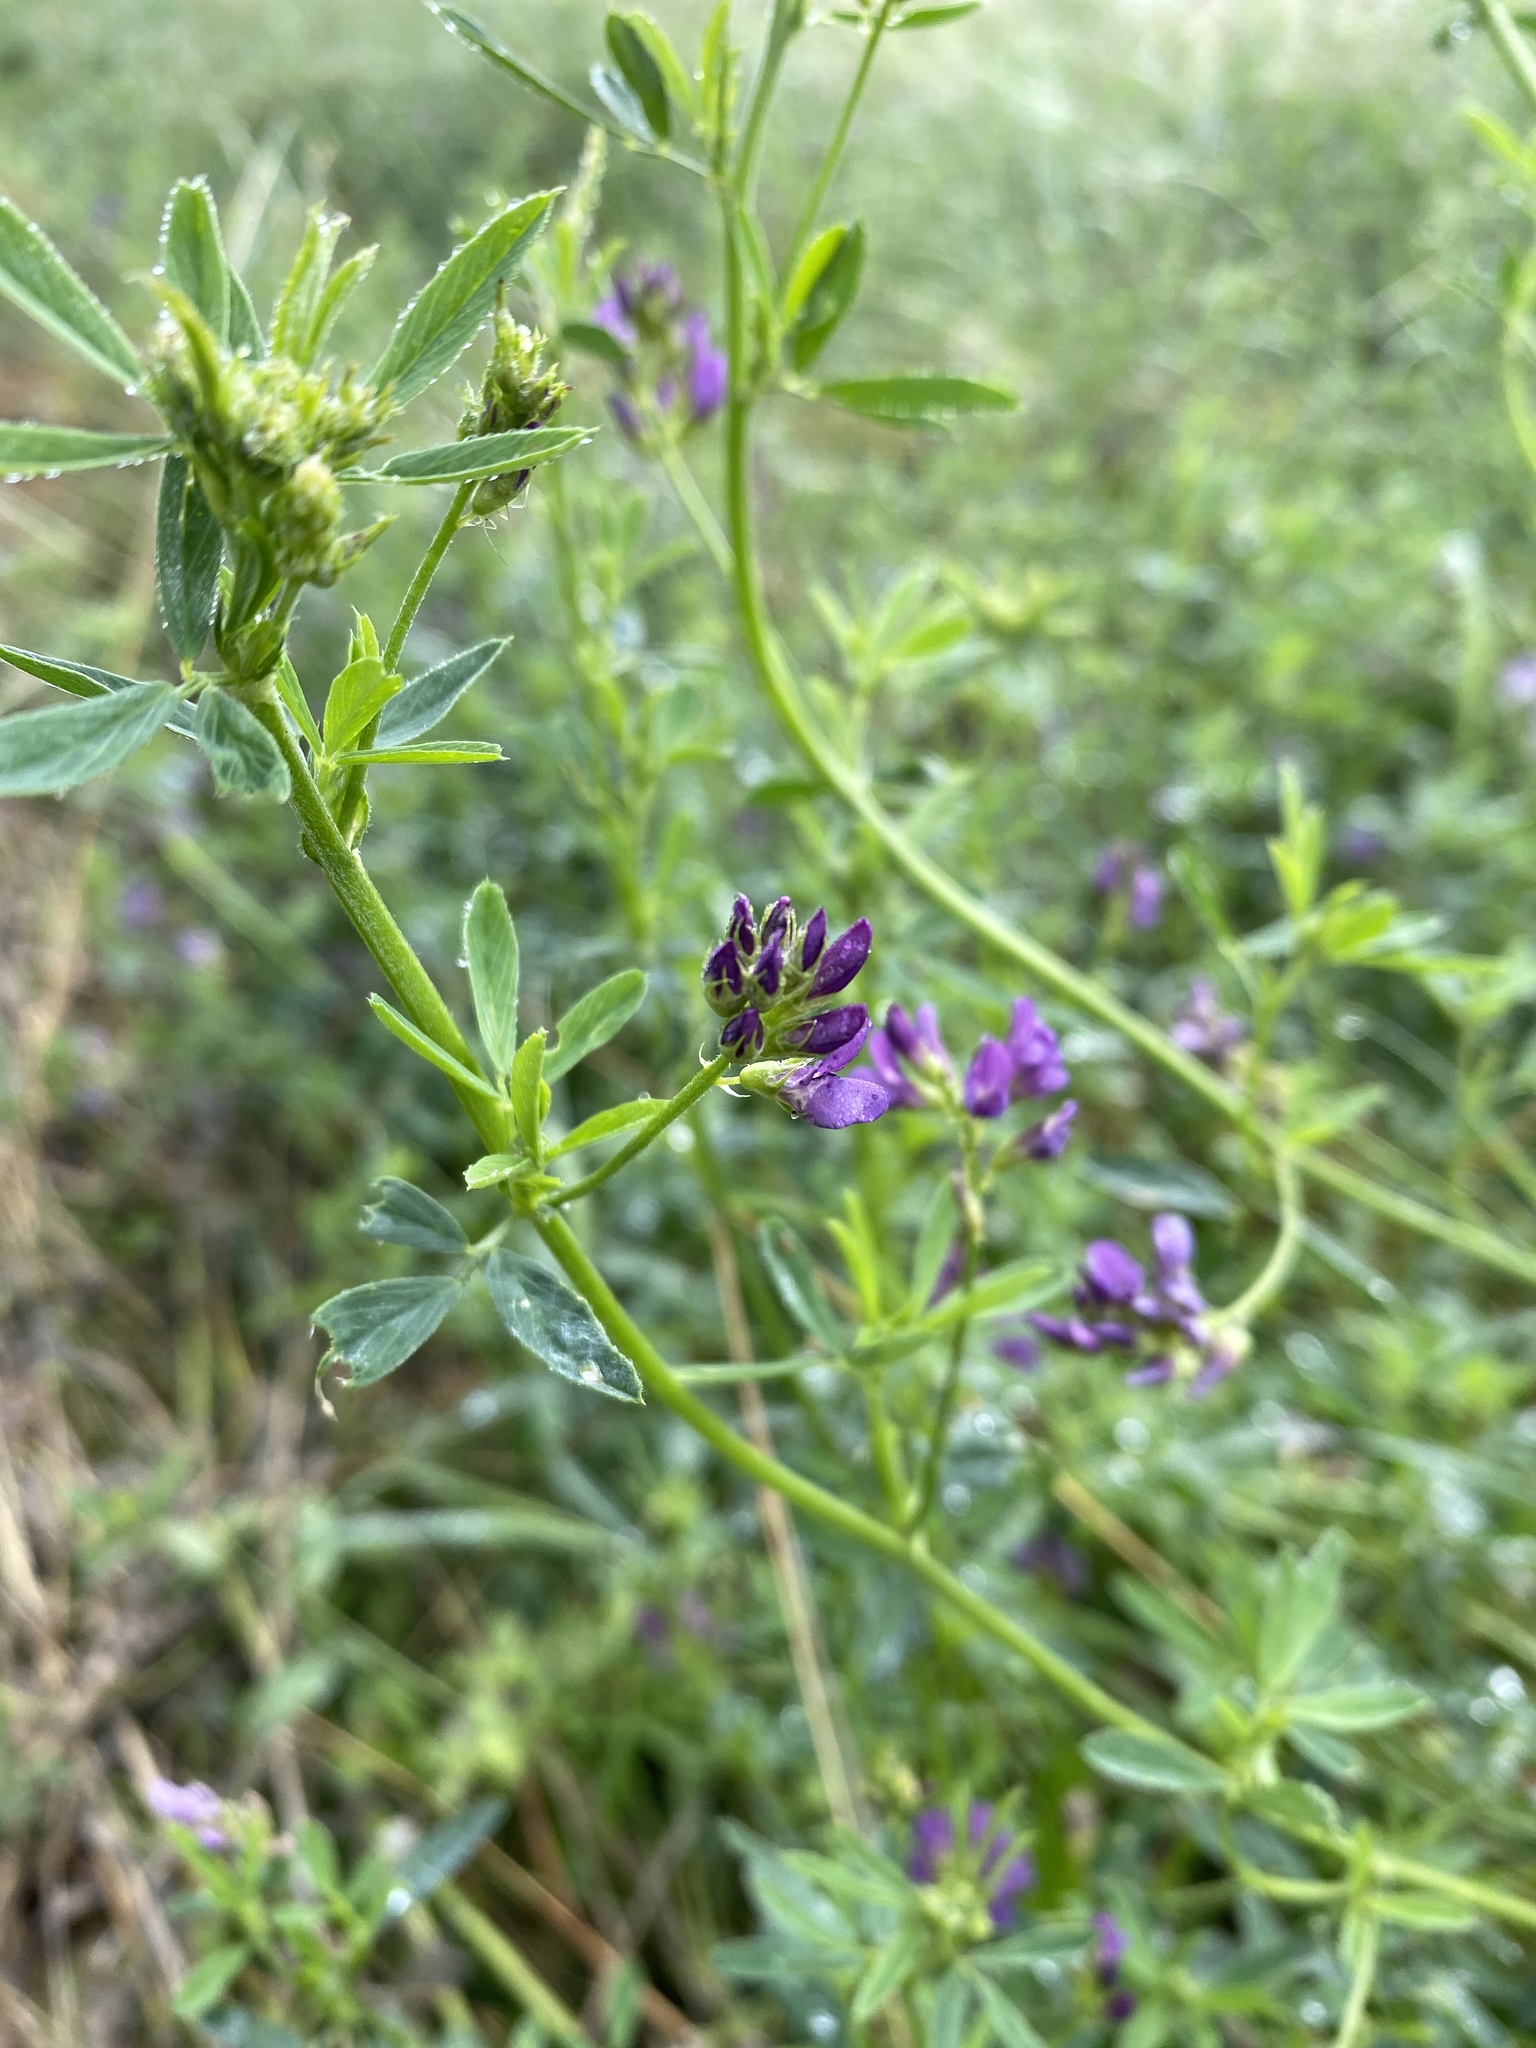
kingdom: Plantae
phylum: Tracheophyta
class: Magnoliopsida
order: Fabales
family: Fabaceae
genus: Medicago
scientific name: Medicago sativa
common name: Alfalfa
